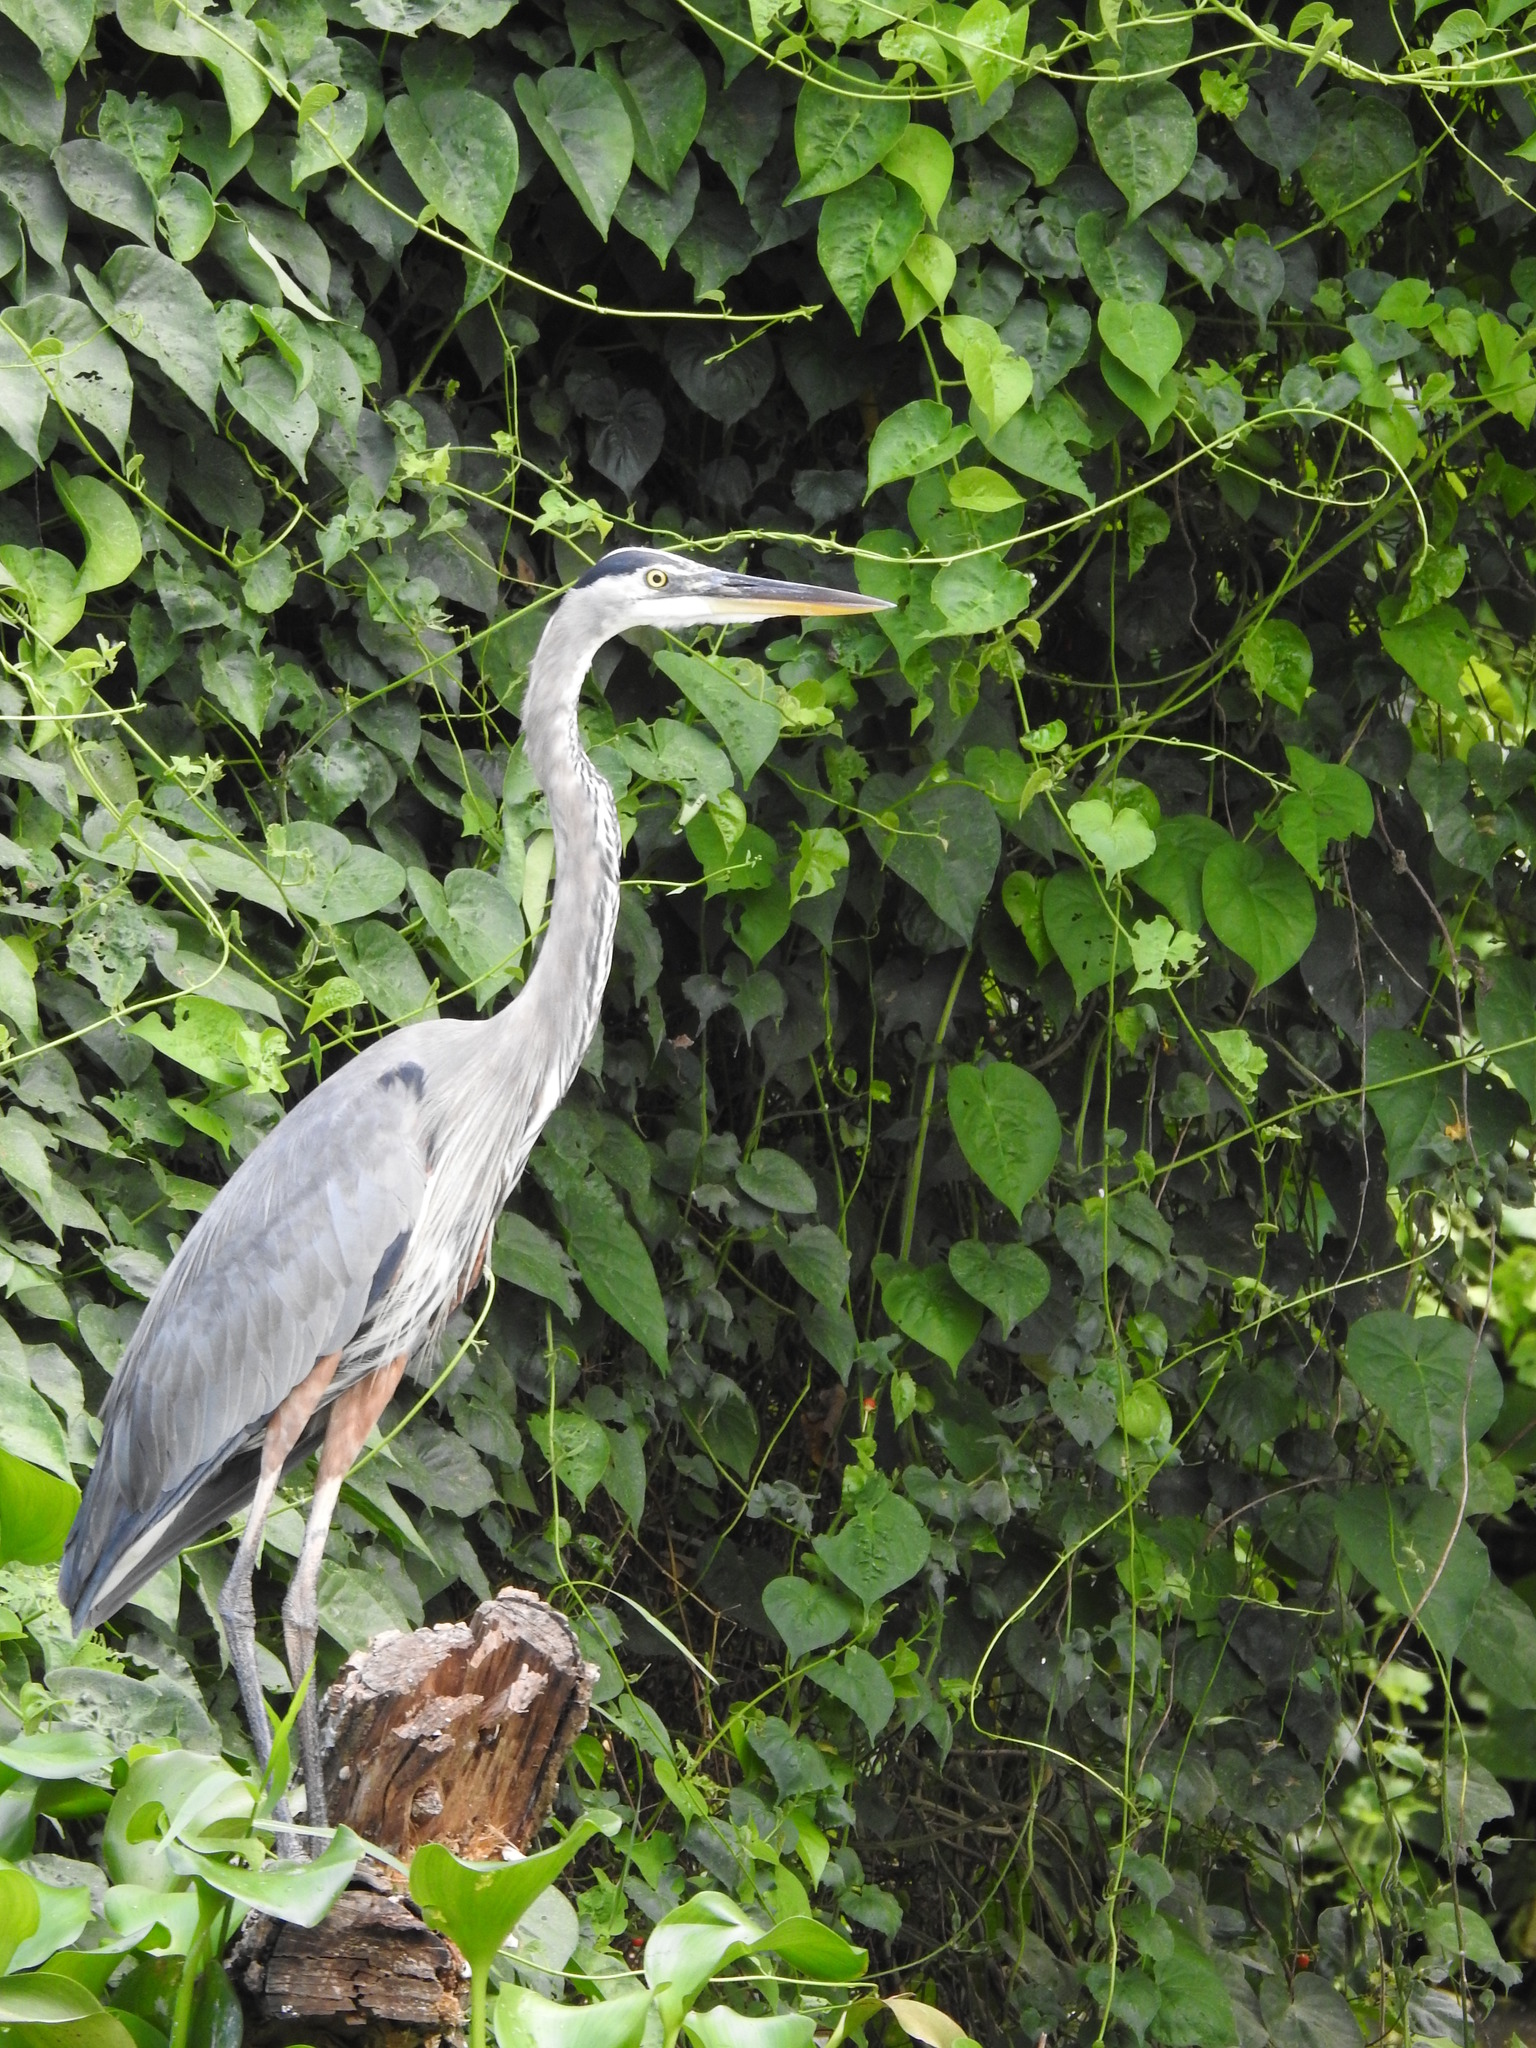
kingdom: Animalia
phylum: Chordata
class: Aves
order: Pelecaniformes
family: Ardeidae
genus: Ardea
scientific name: Ardea herodias
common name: Great blue heron
